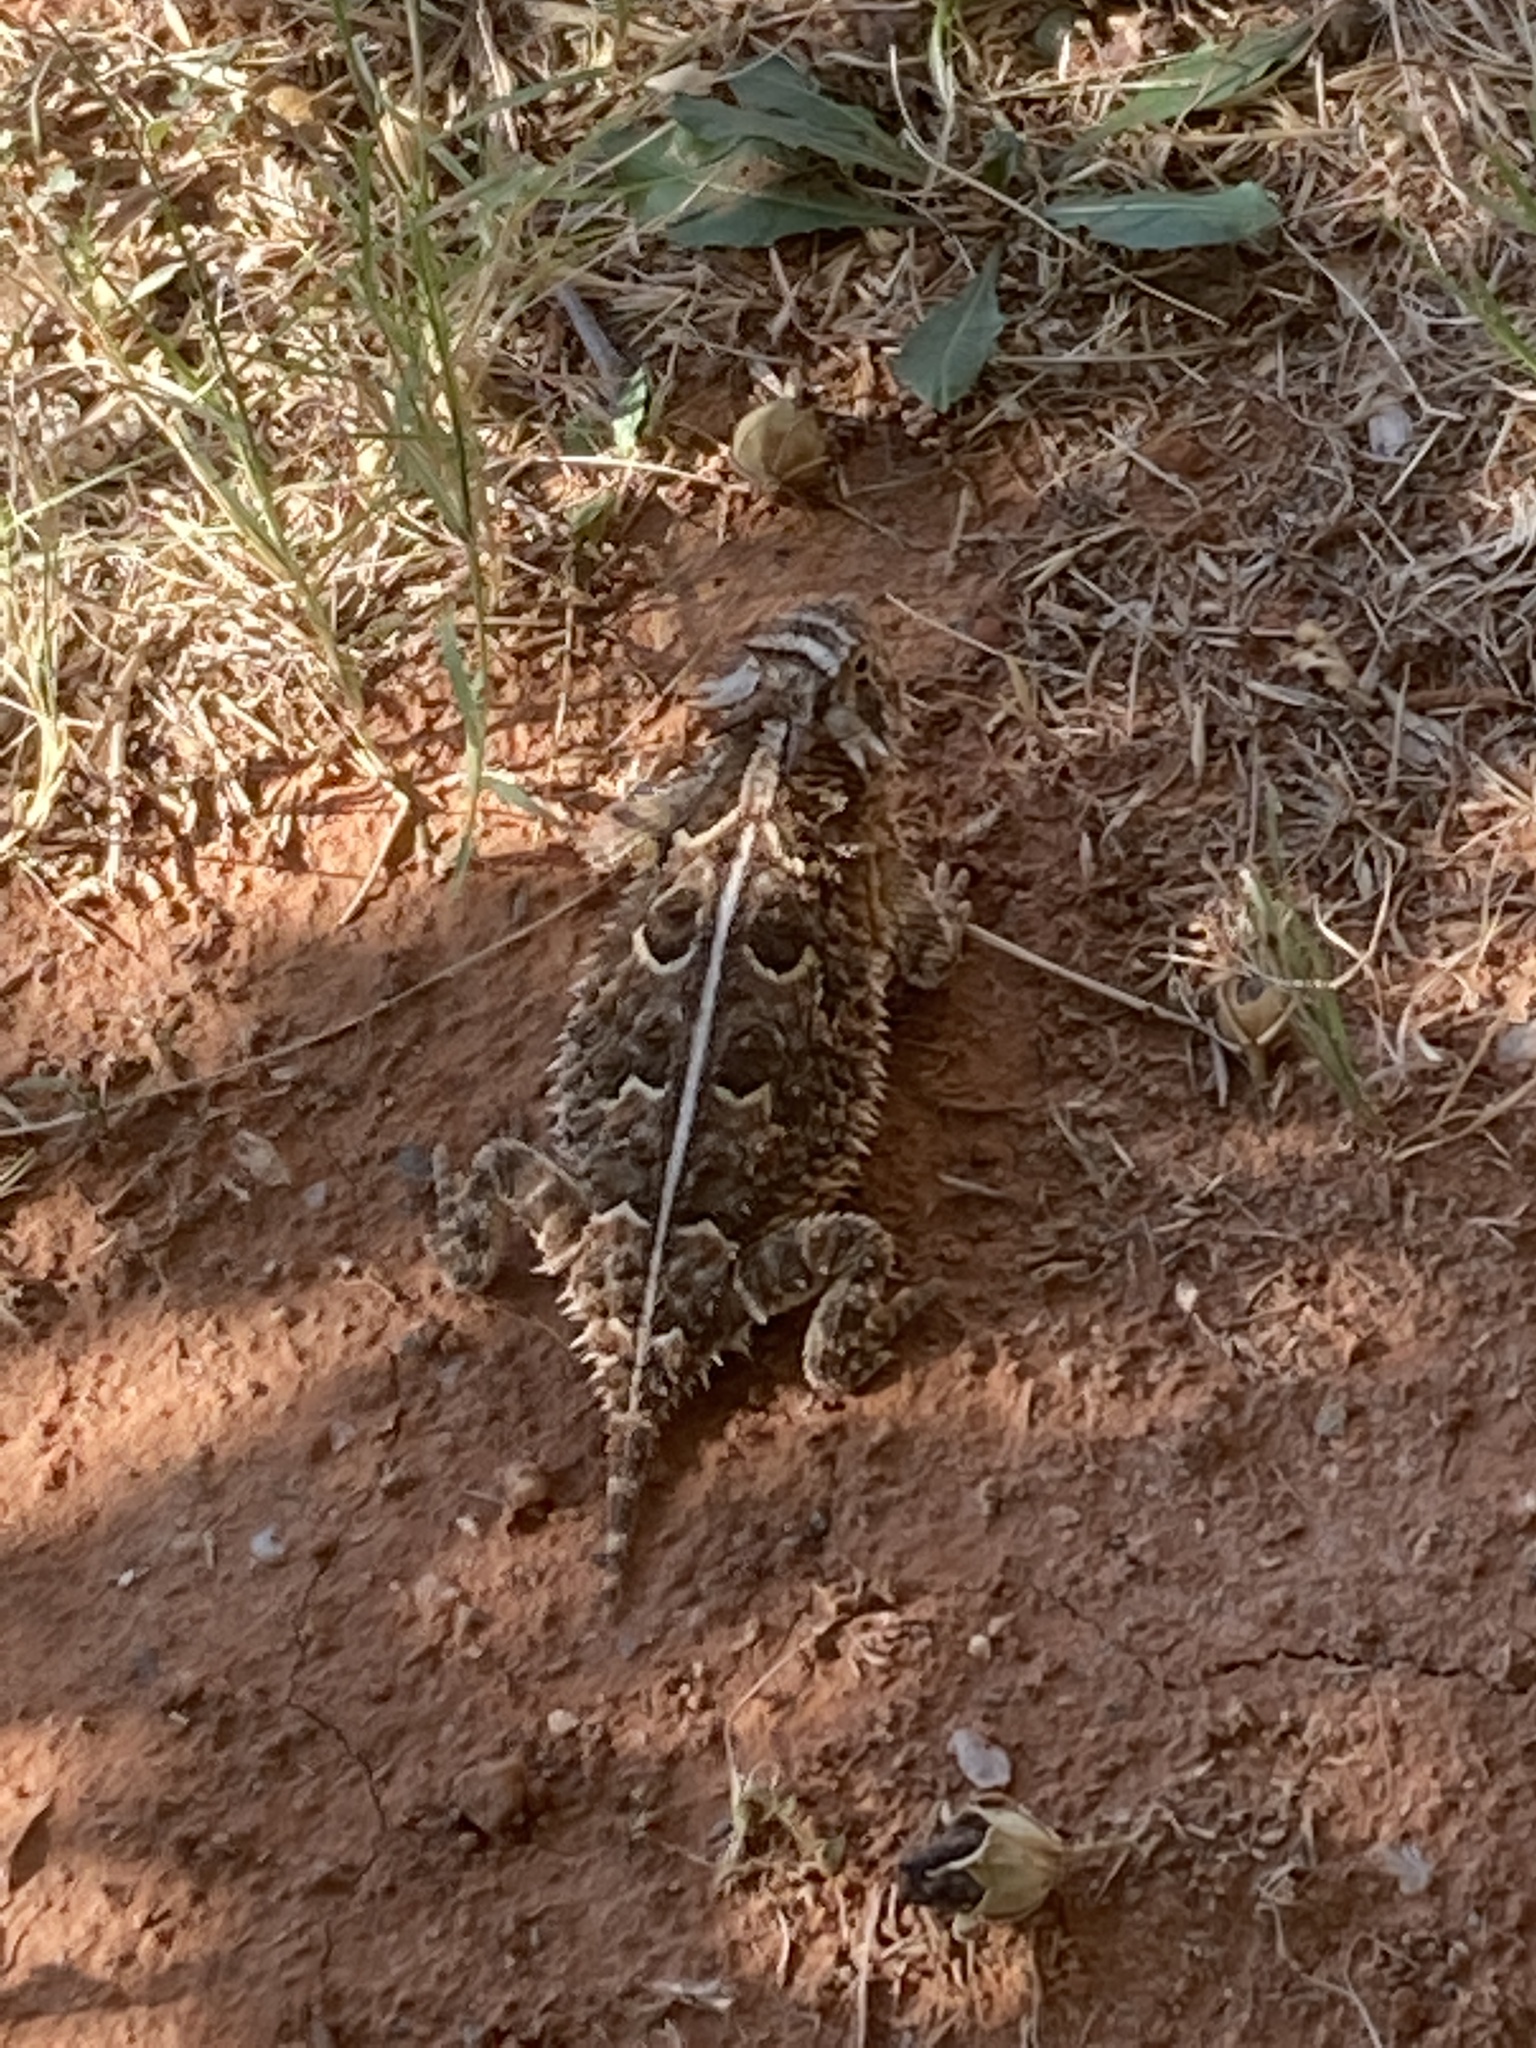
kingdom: Animalia
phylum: Chordata
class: Squamata
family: Phrynosomatidae
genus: Phrynosoma
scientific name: Phrynosoma cornutum
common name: Texas horned lizard
